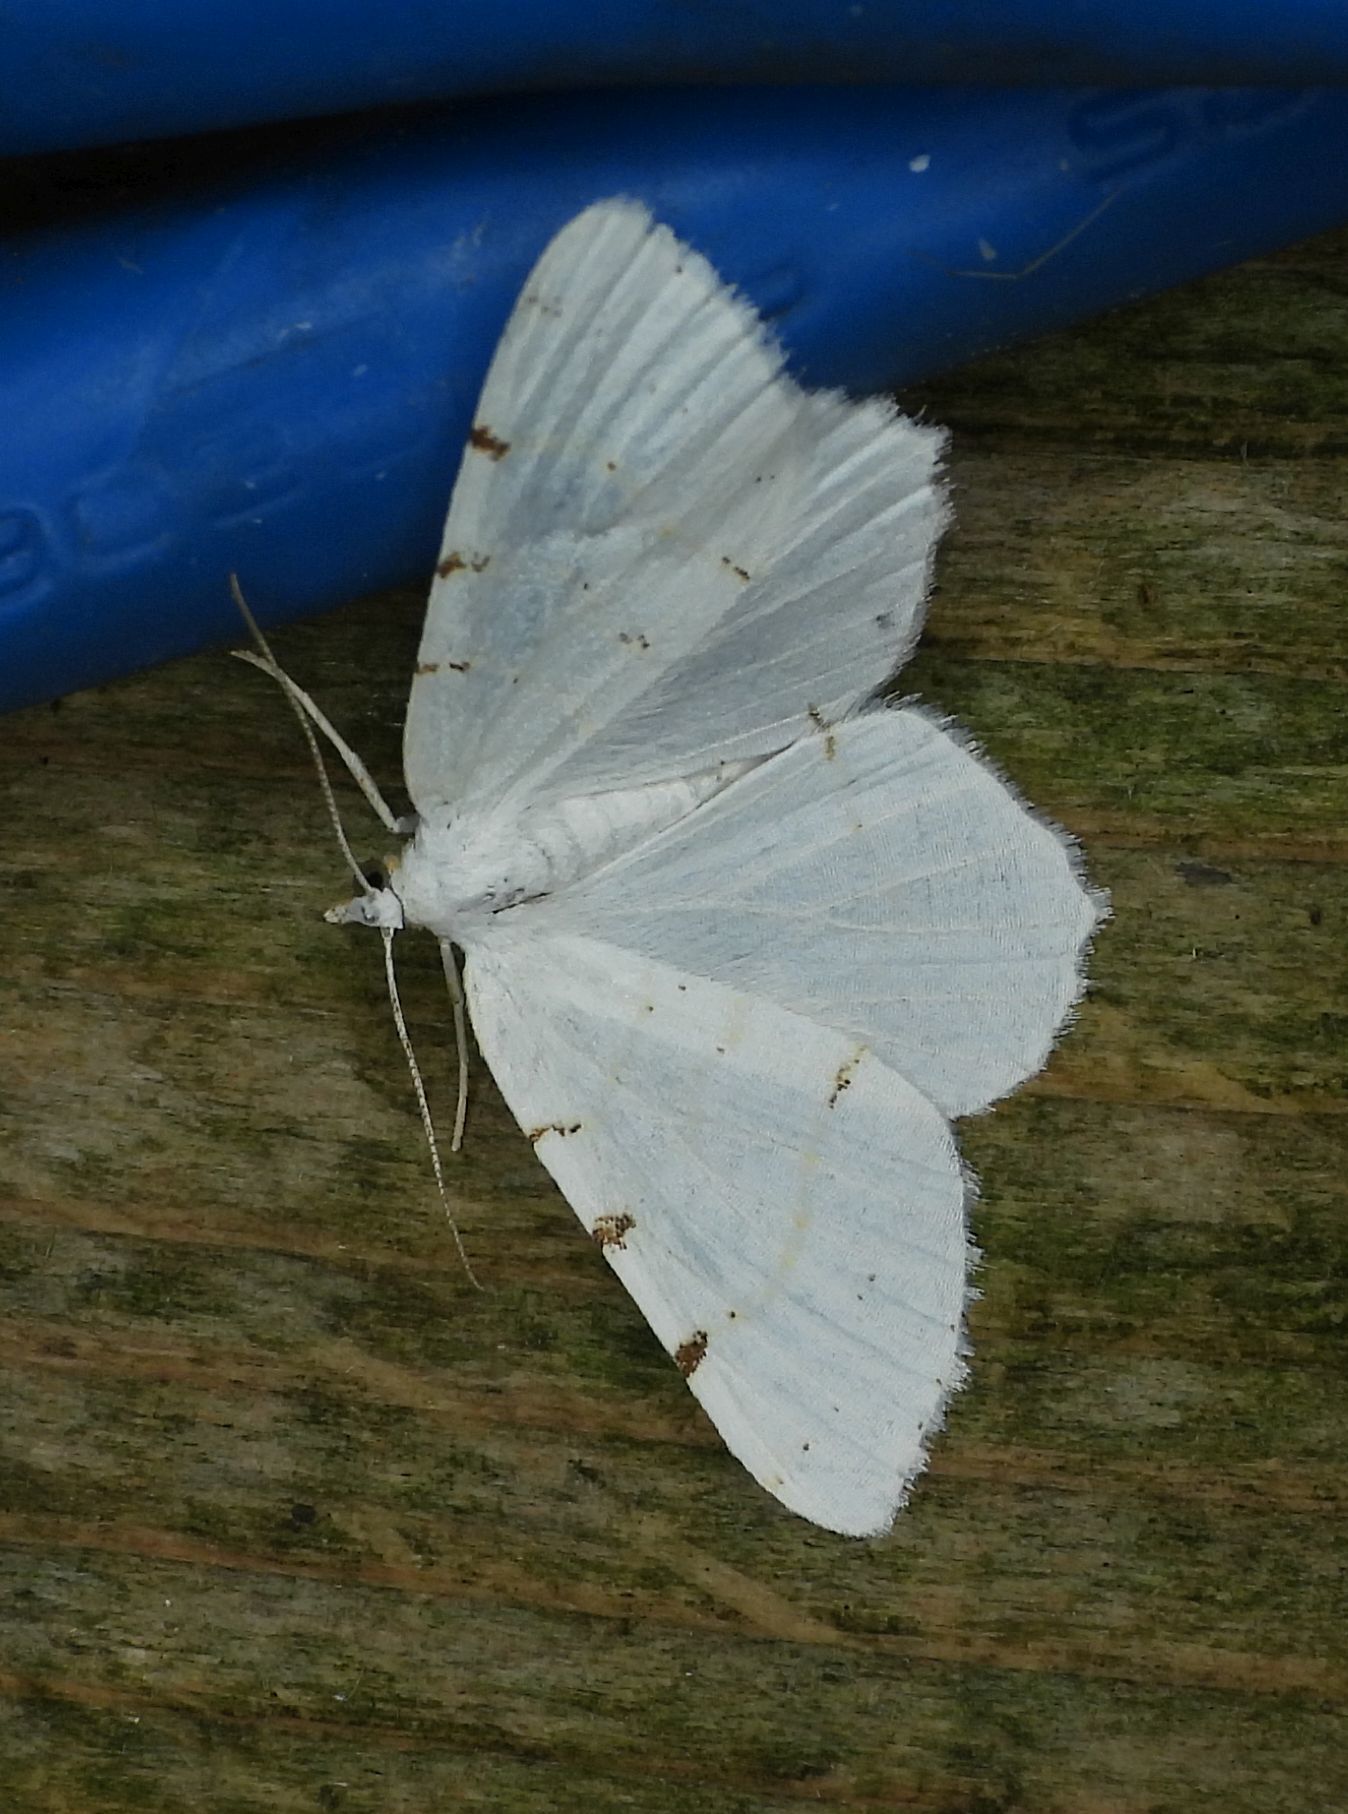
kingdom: Animalia
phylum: Arthropoda
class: Insecta
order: Lepidoptera
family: Geometridae
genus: Macaria
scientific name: Macaria pustularia
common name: Lesser maple spanworm moth
